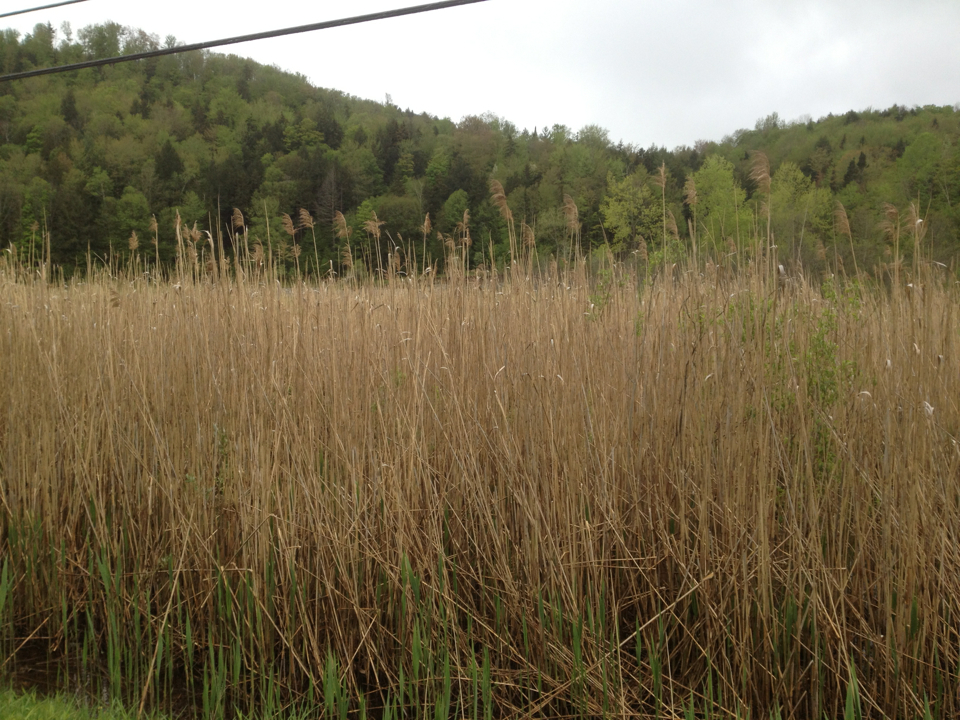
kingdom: Plantae
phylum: Tracheophyta
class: Liliopsida
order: Poales
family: Poaceae
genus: Phragmites
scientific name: Phragmites australis
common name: Common reed
